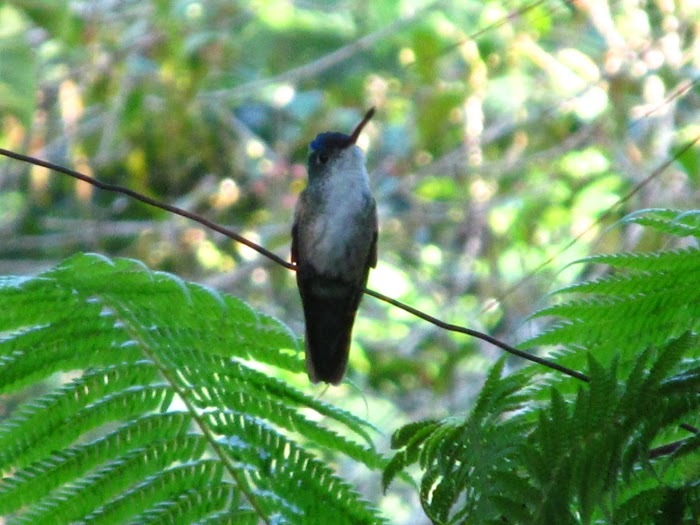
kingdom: Animalia
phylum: Chordata
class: Aves
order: Apodiformes
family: Trochilidae
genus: Saucerottia
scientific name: Saucerottia cyanocephala
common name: Azure-crowned hummingbird
